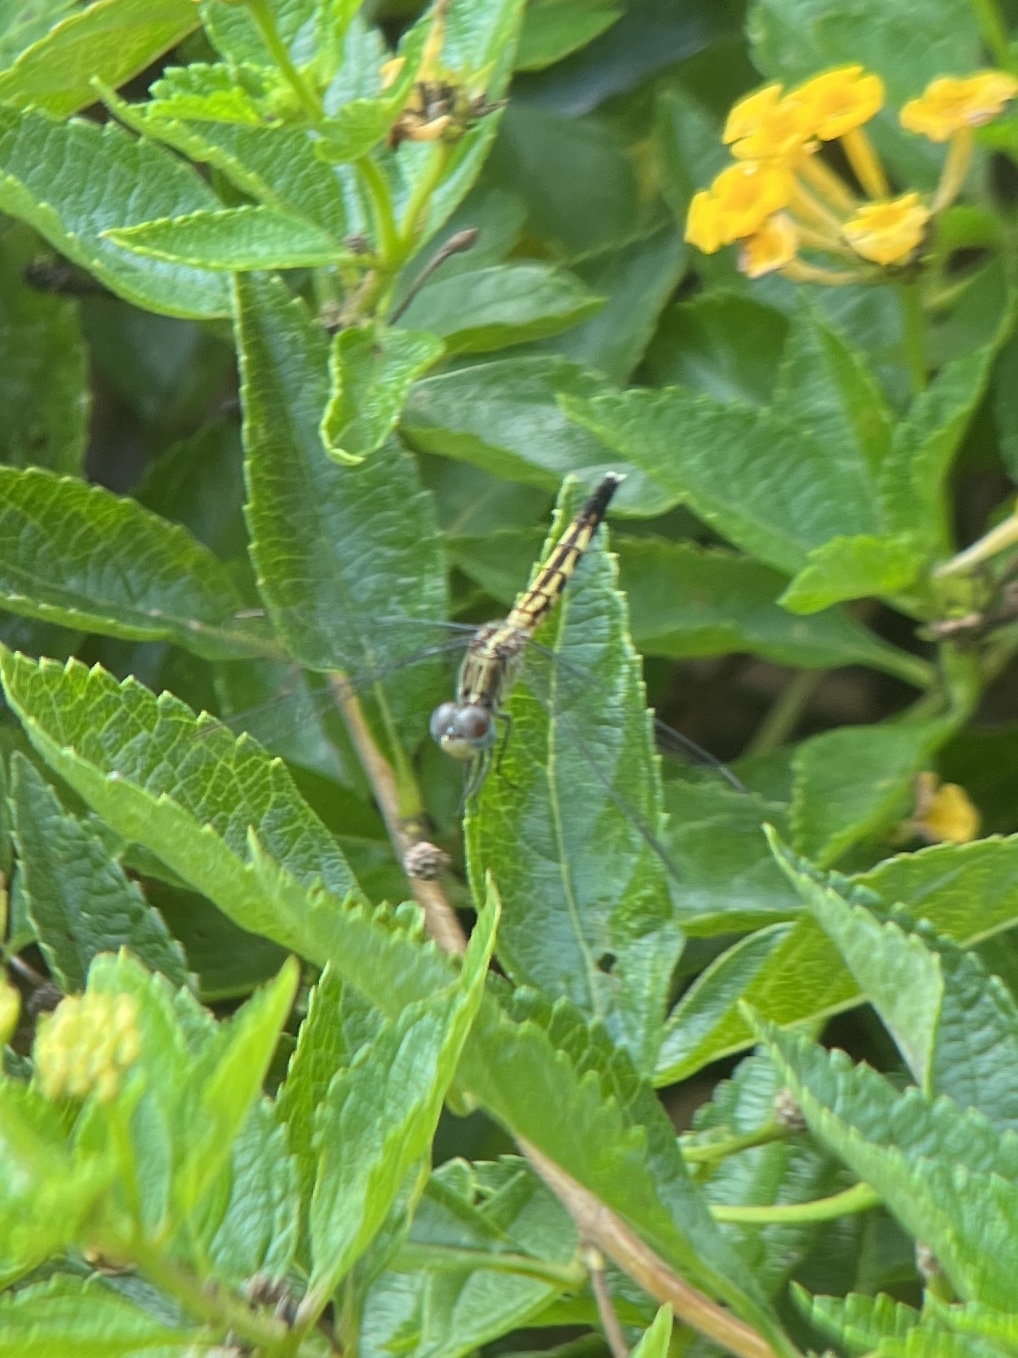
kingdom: Animalia
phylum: Arthropoda
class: Insecta
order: Odonata
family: Libellulidae
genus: Erythrodiplax
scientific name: Erythrodiplax minuscula
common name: Little blue dragonlet
